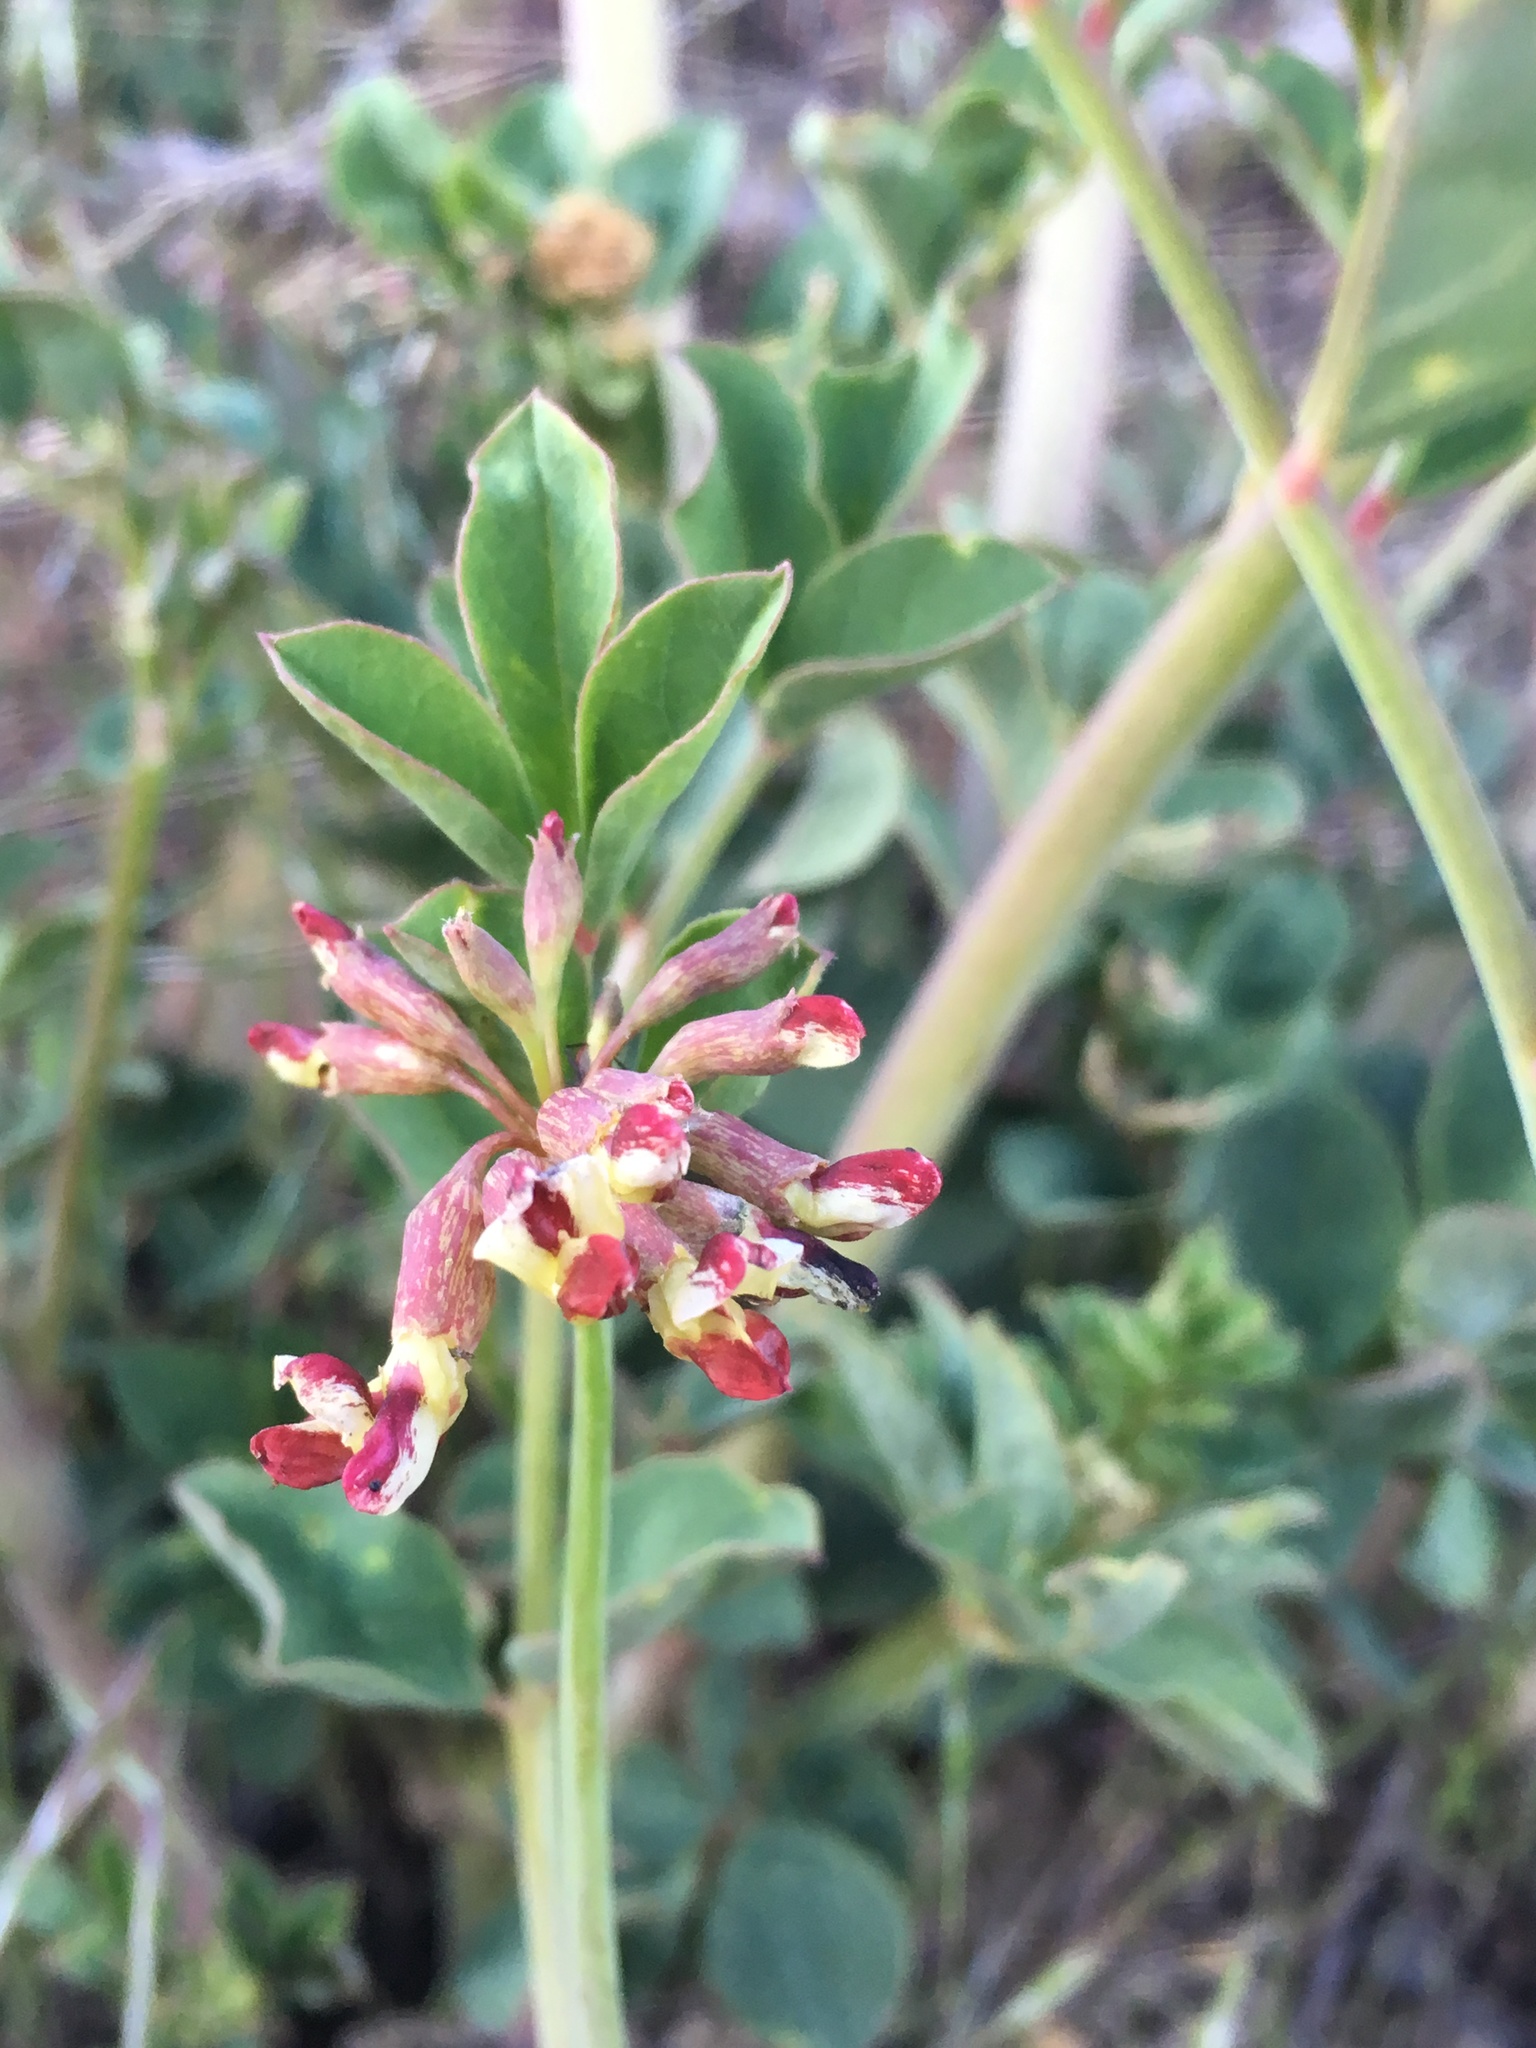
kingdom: Plantae
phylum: Tracheophyta
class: Magnoliopsida
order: Fabales
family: Fabaceae
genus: Hosackia
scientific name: Hosackia crassifolia
